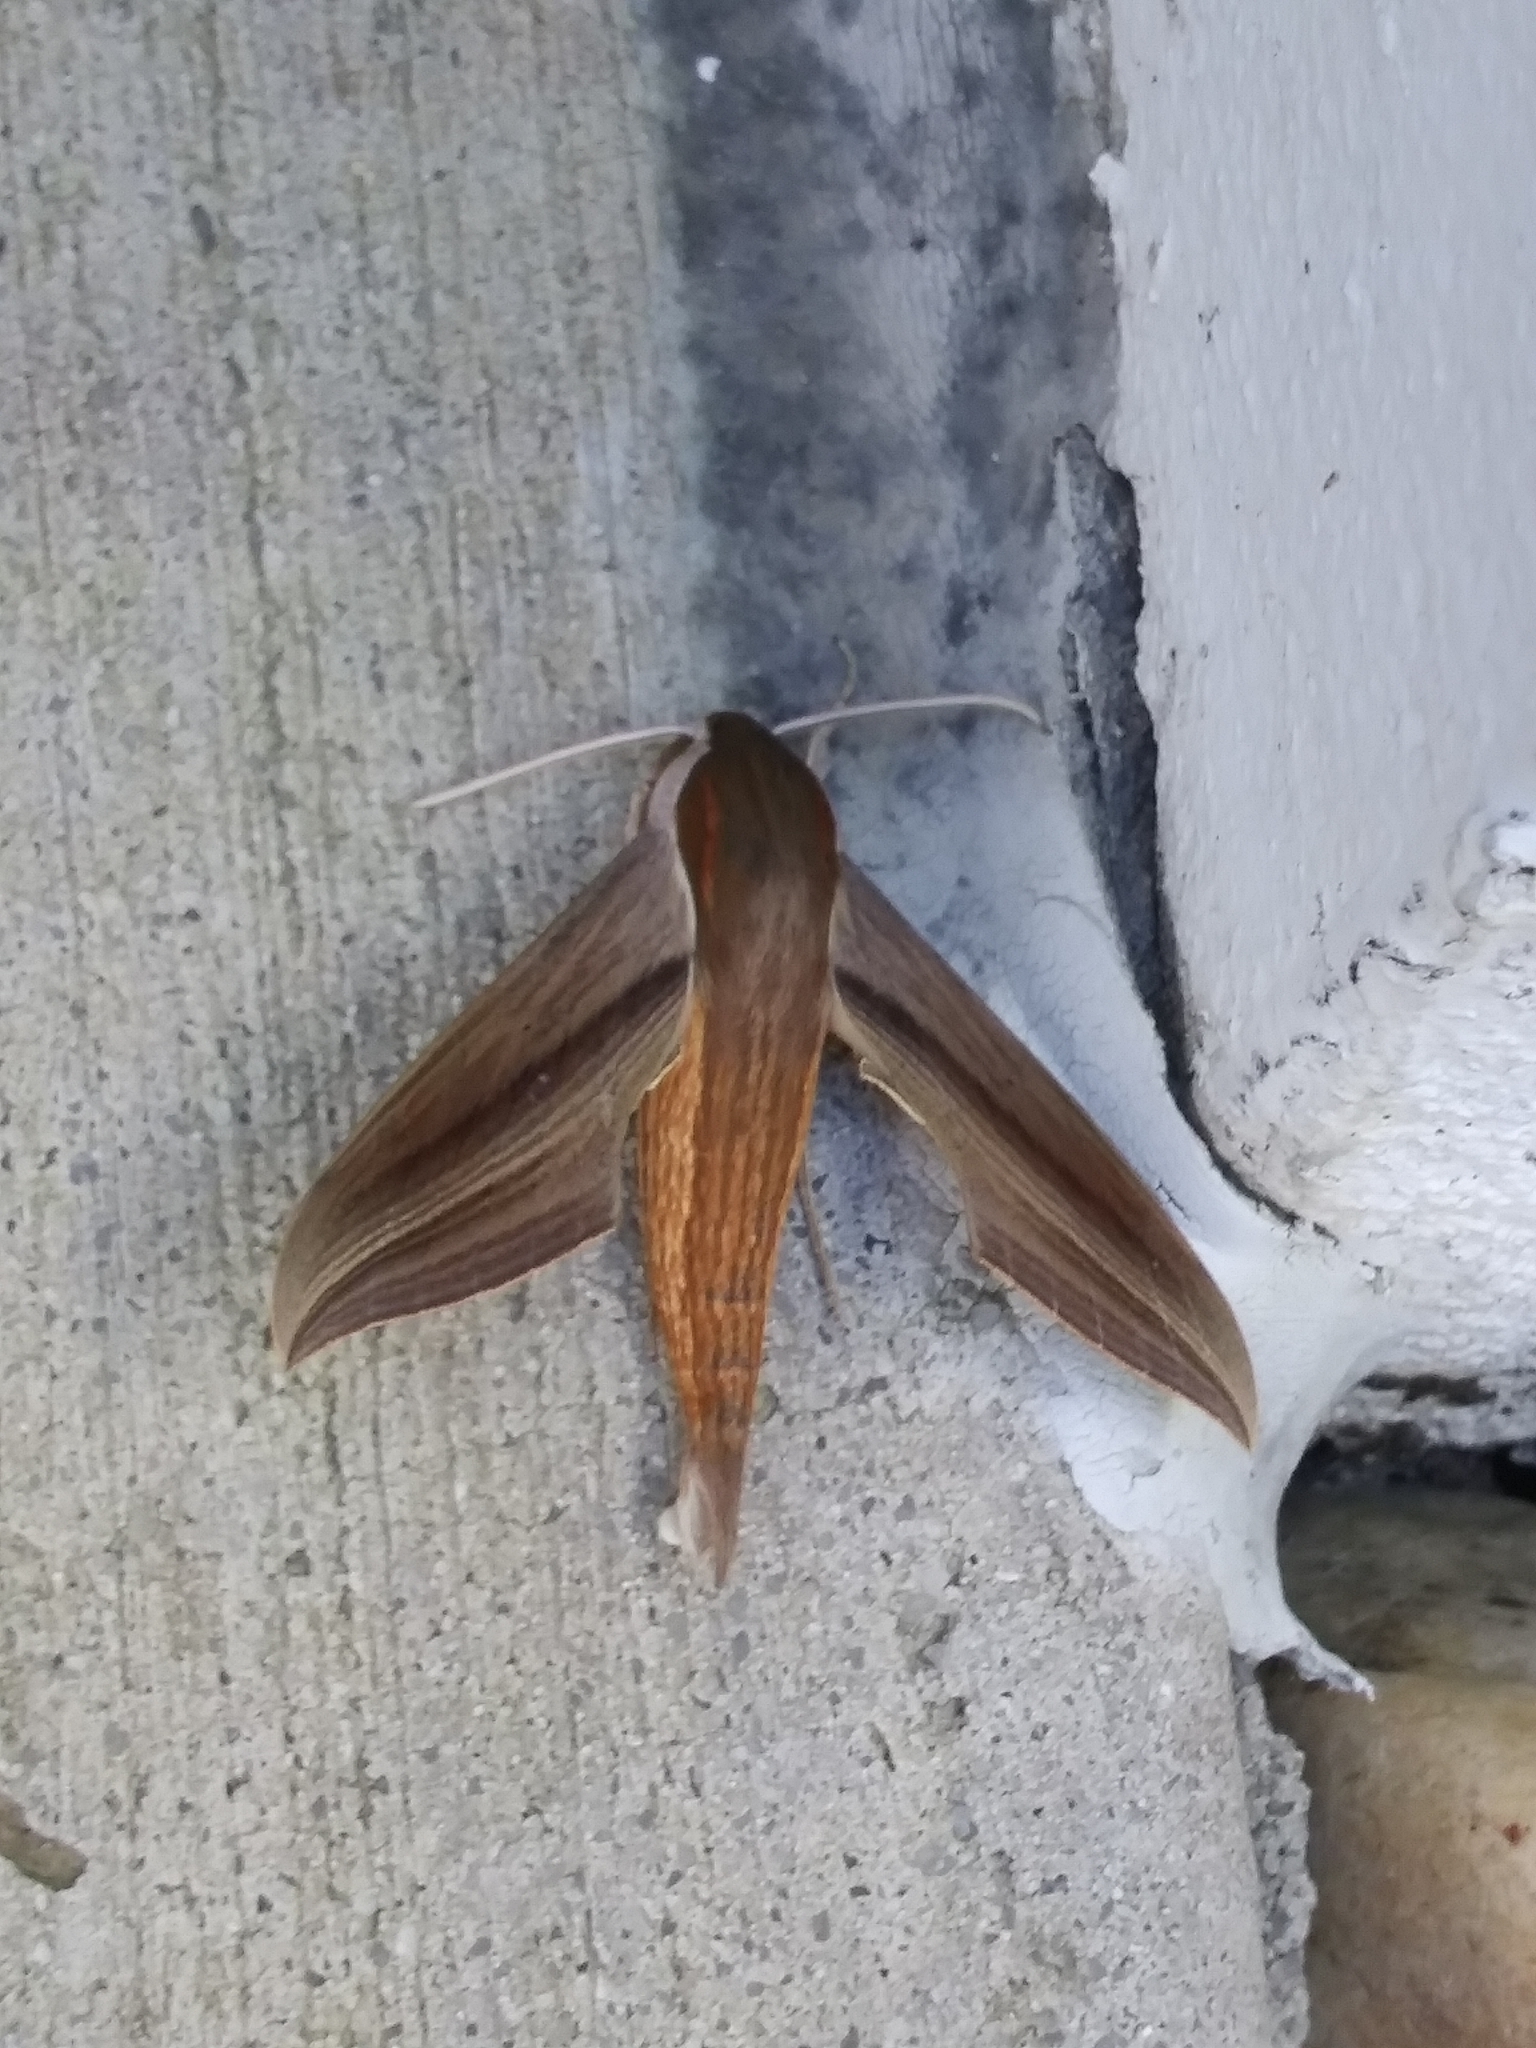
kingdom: Animalia
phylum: Arthropoda
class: Insecta
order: Lepidoptera
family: Sphingidae
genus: Xylophanes
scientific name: Xylophanes tersa
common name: Tersa sphinx
